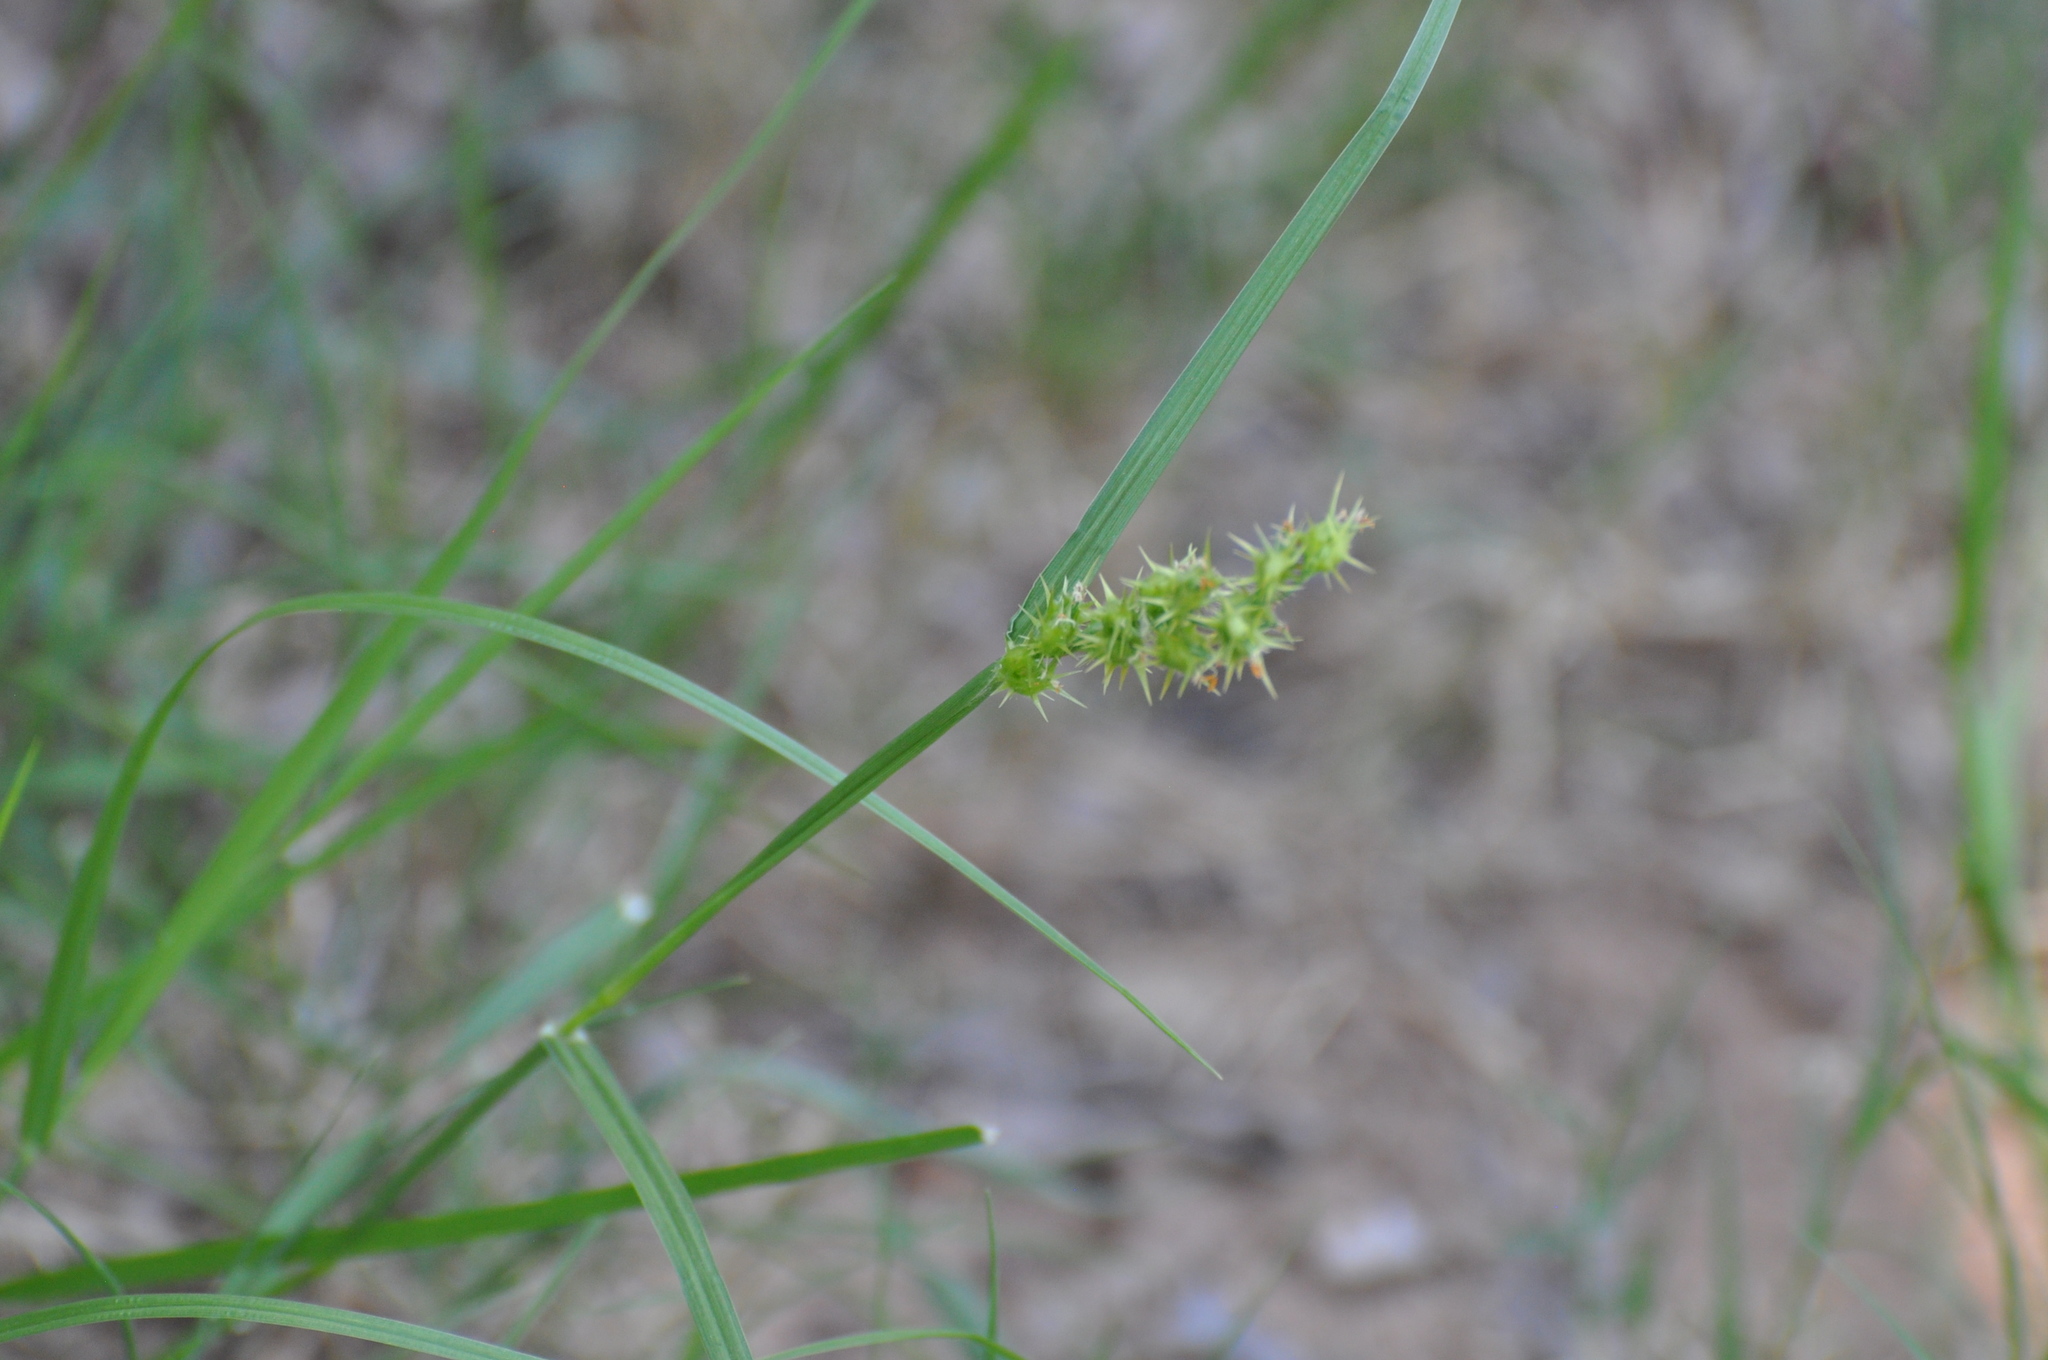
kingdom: Plantae
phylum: Tracheophyta
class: Liliopsida
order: Poales
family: Poaceae
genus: Cenchrus
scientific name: Cenchrus spinifex
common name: Coast sandbur
